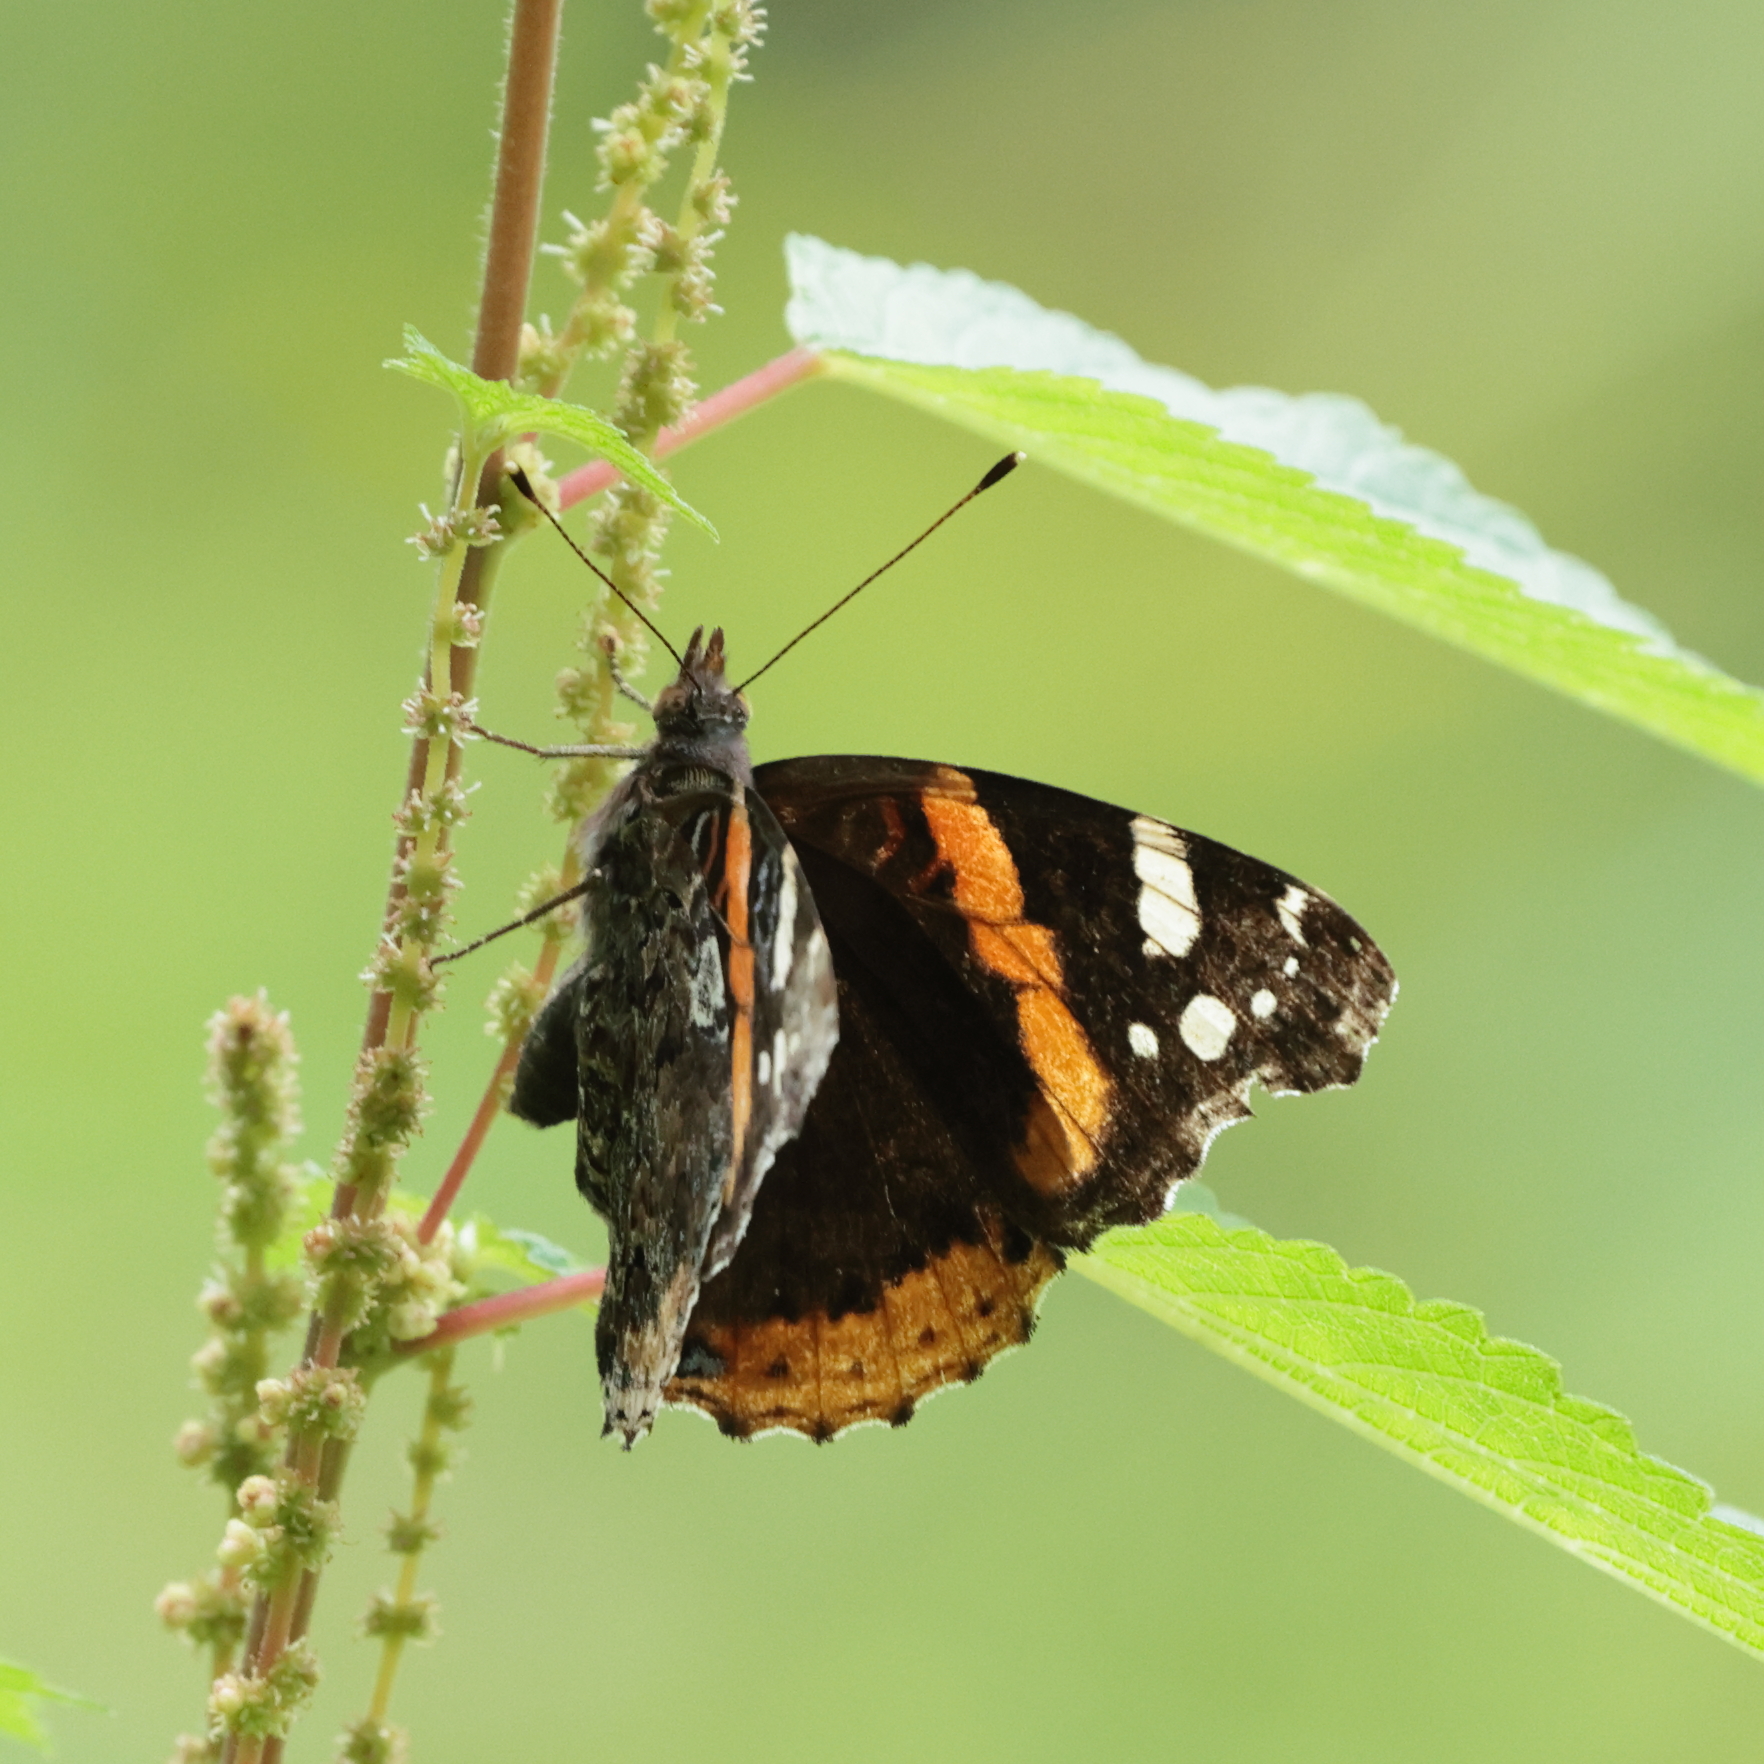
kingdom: Animalia
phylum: Arthropoda
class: Insecta
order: Lepidoptera
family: Nymphalidae
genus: Vanessa
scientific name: Vanessa atalanta
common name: Red admiral
